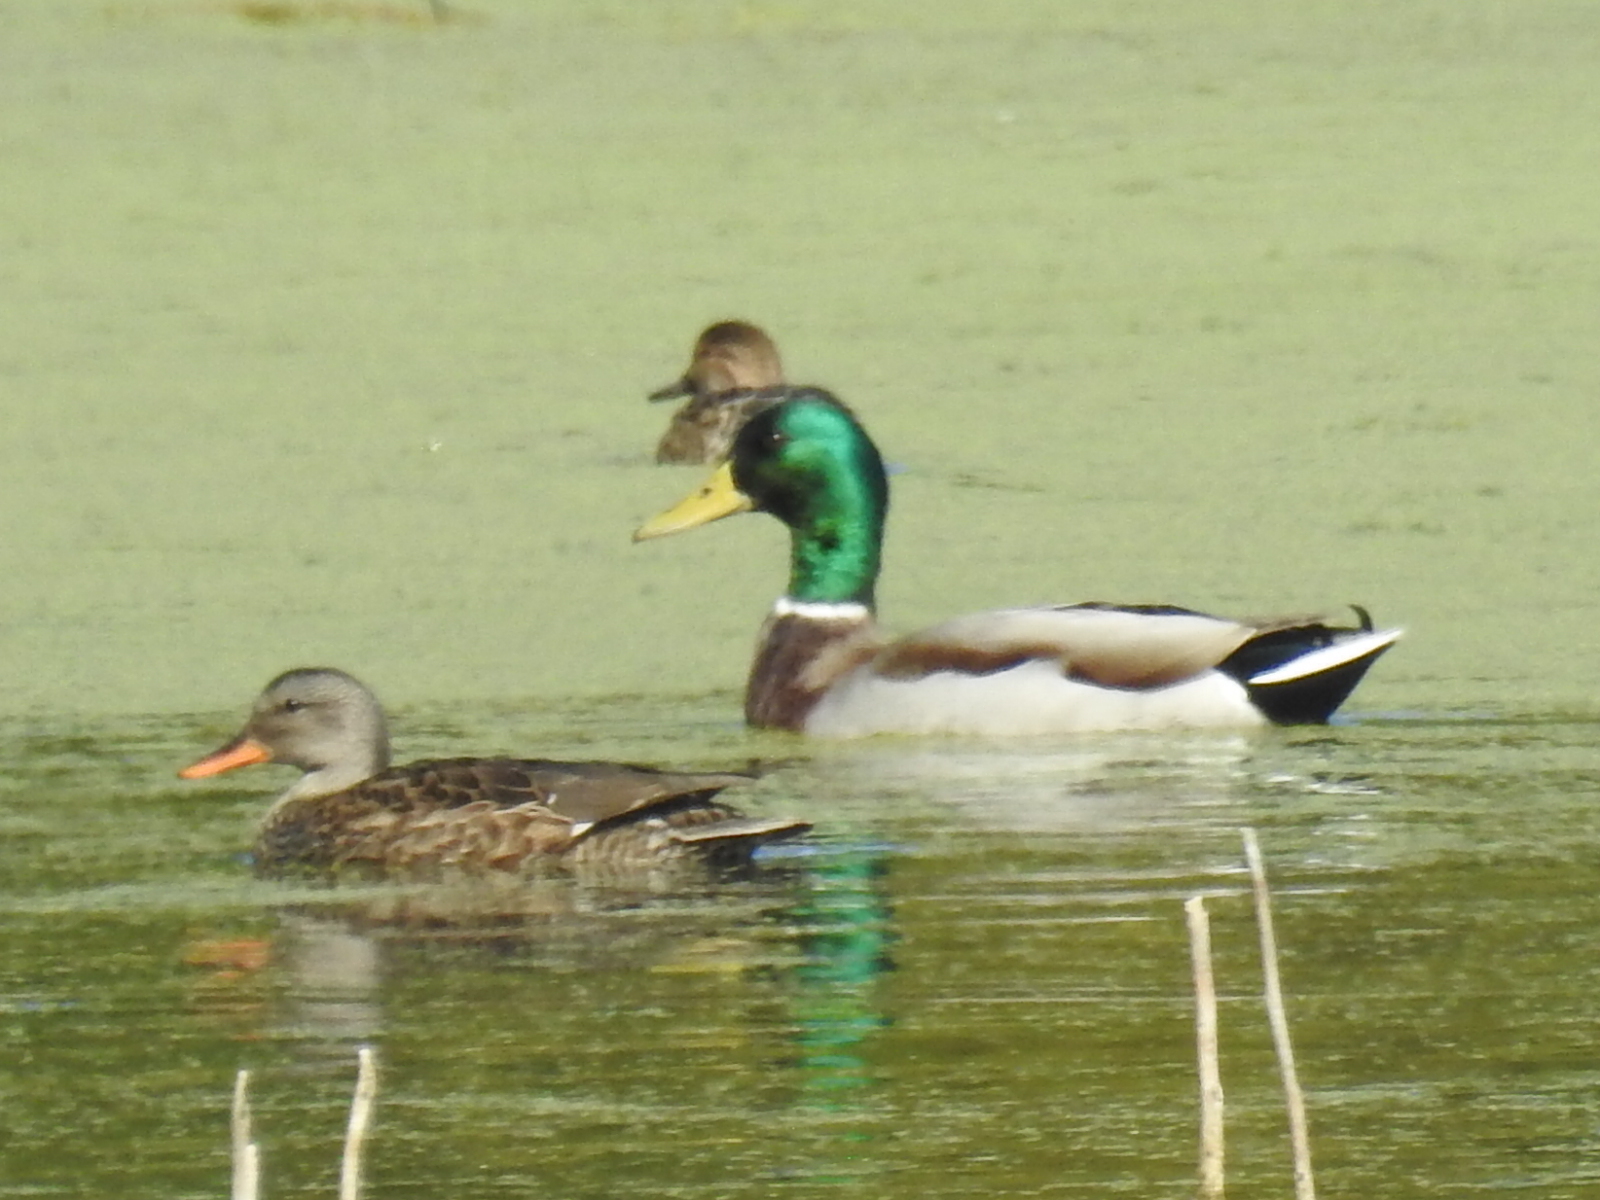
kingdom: Animalia
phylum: Chordata
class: Aves
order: Anseriformes
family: Anatidae
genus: Anas
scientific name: Anas platyrhynchos
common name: Mallard
